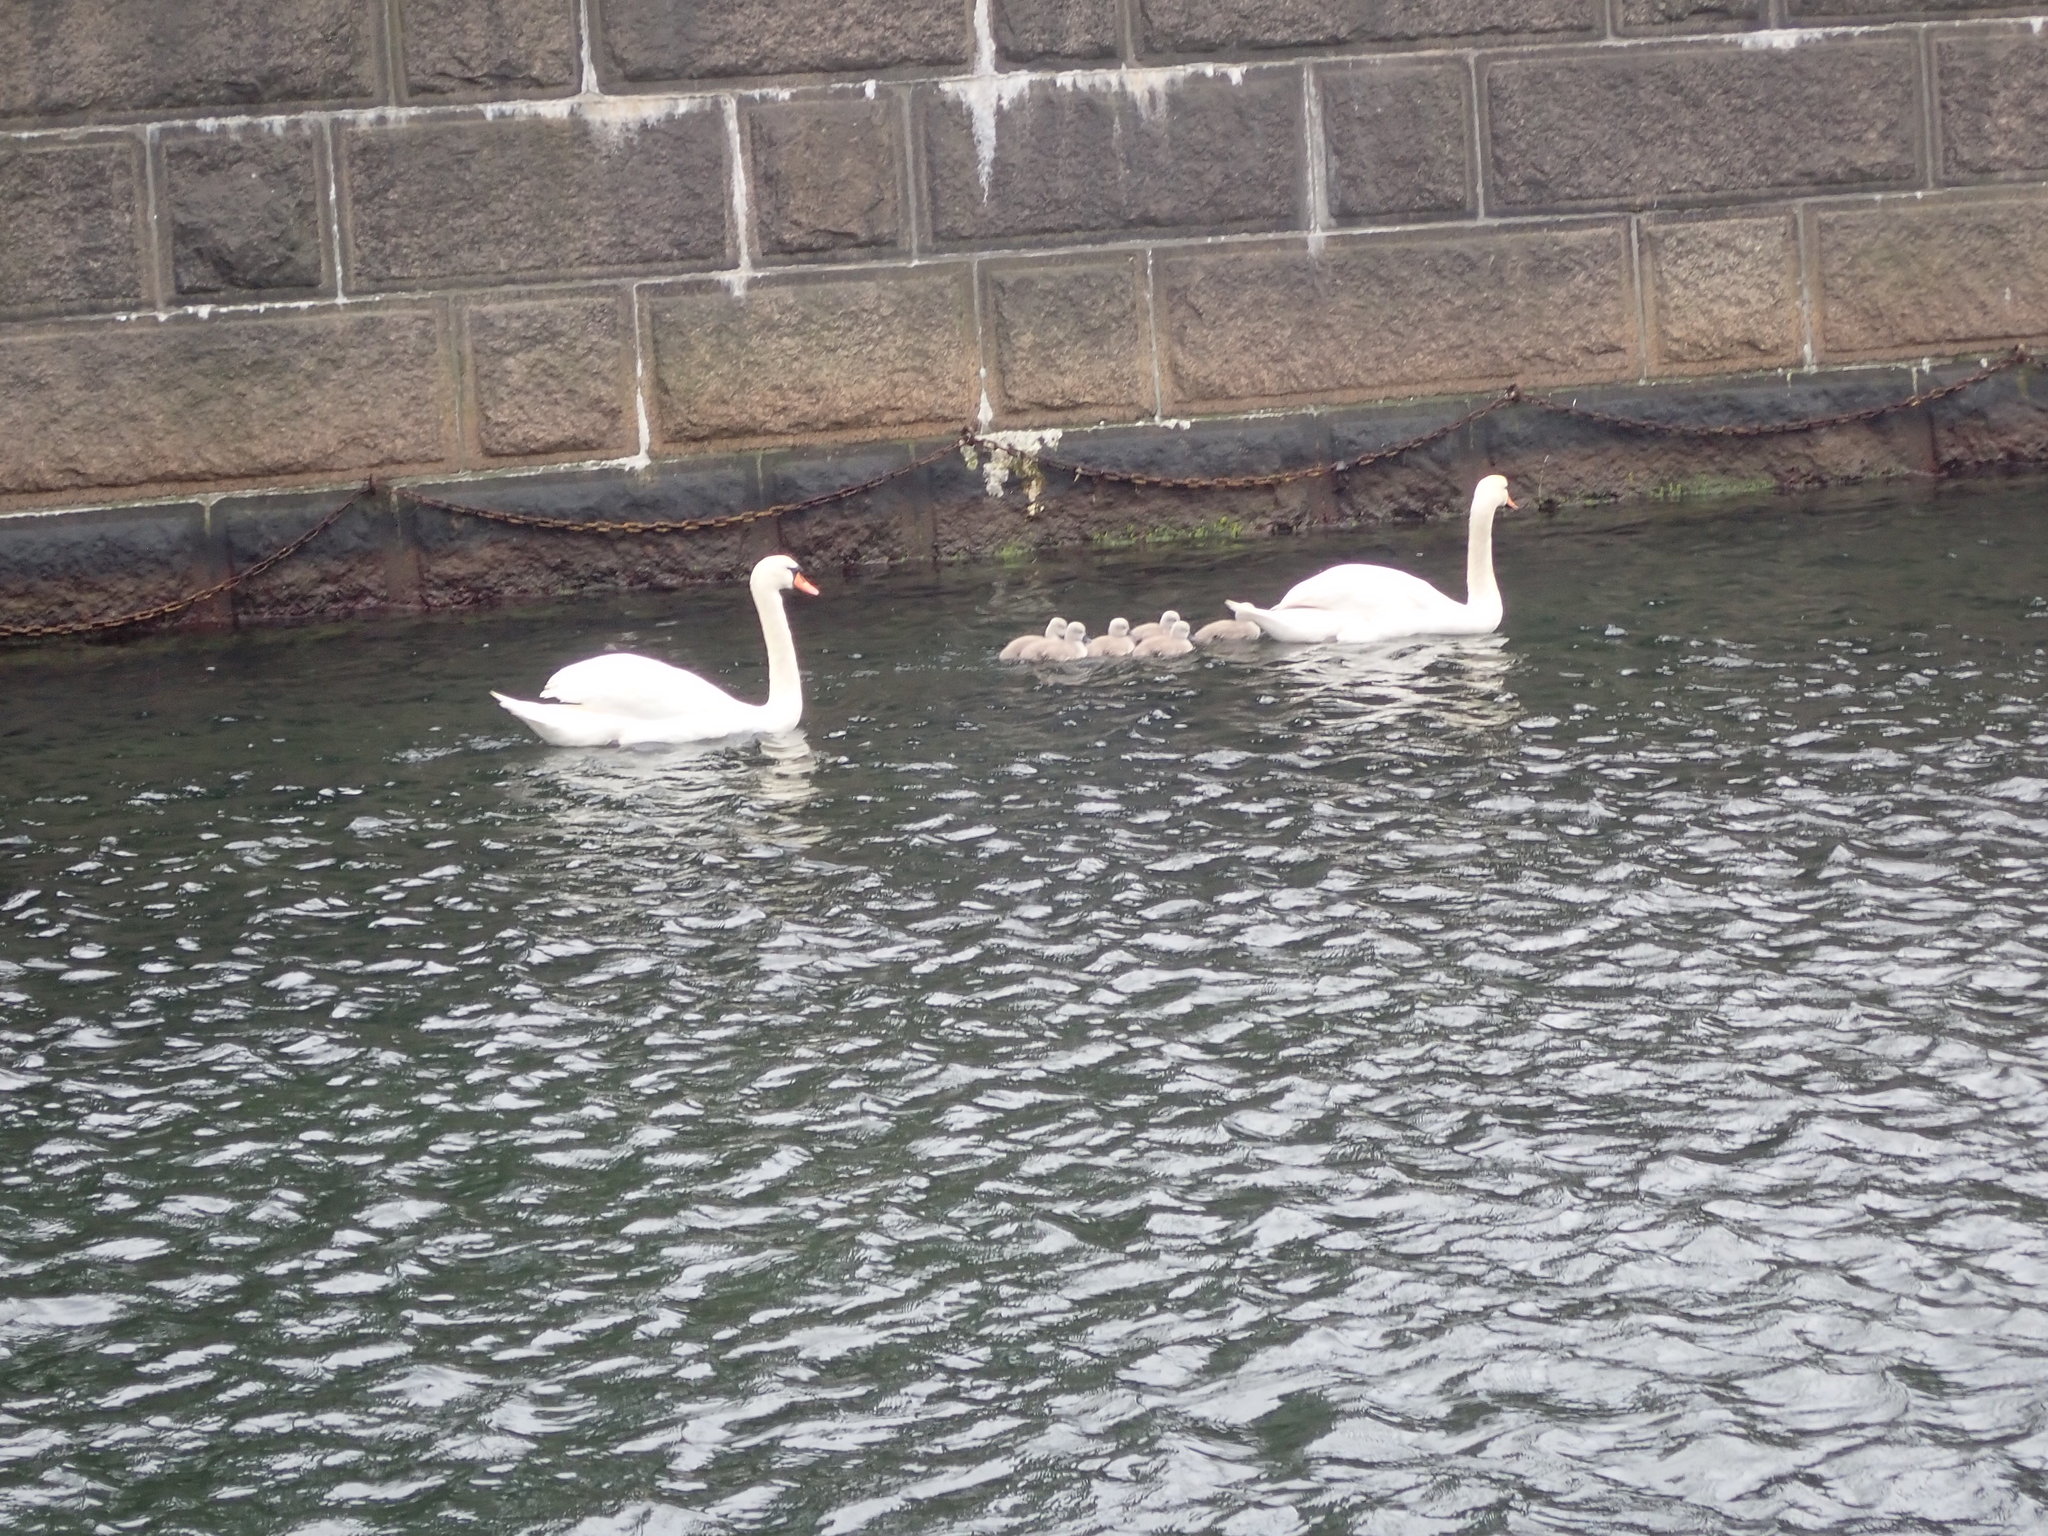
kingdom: Animalia
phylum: Chordata
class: Aves
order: Anseriformes
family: Anatidae
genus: Cygnus
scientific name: Cygnus olor
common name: Mute swan
